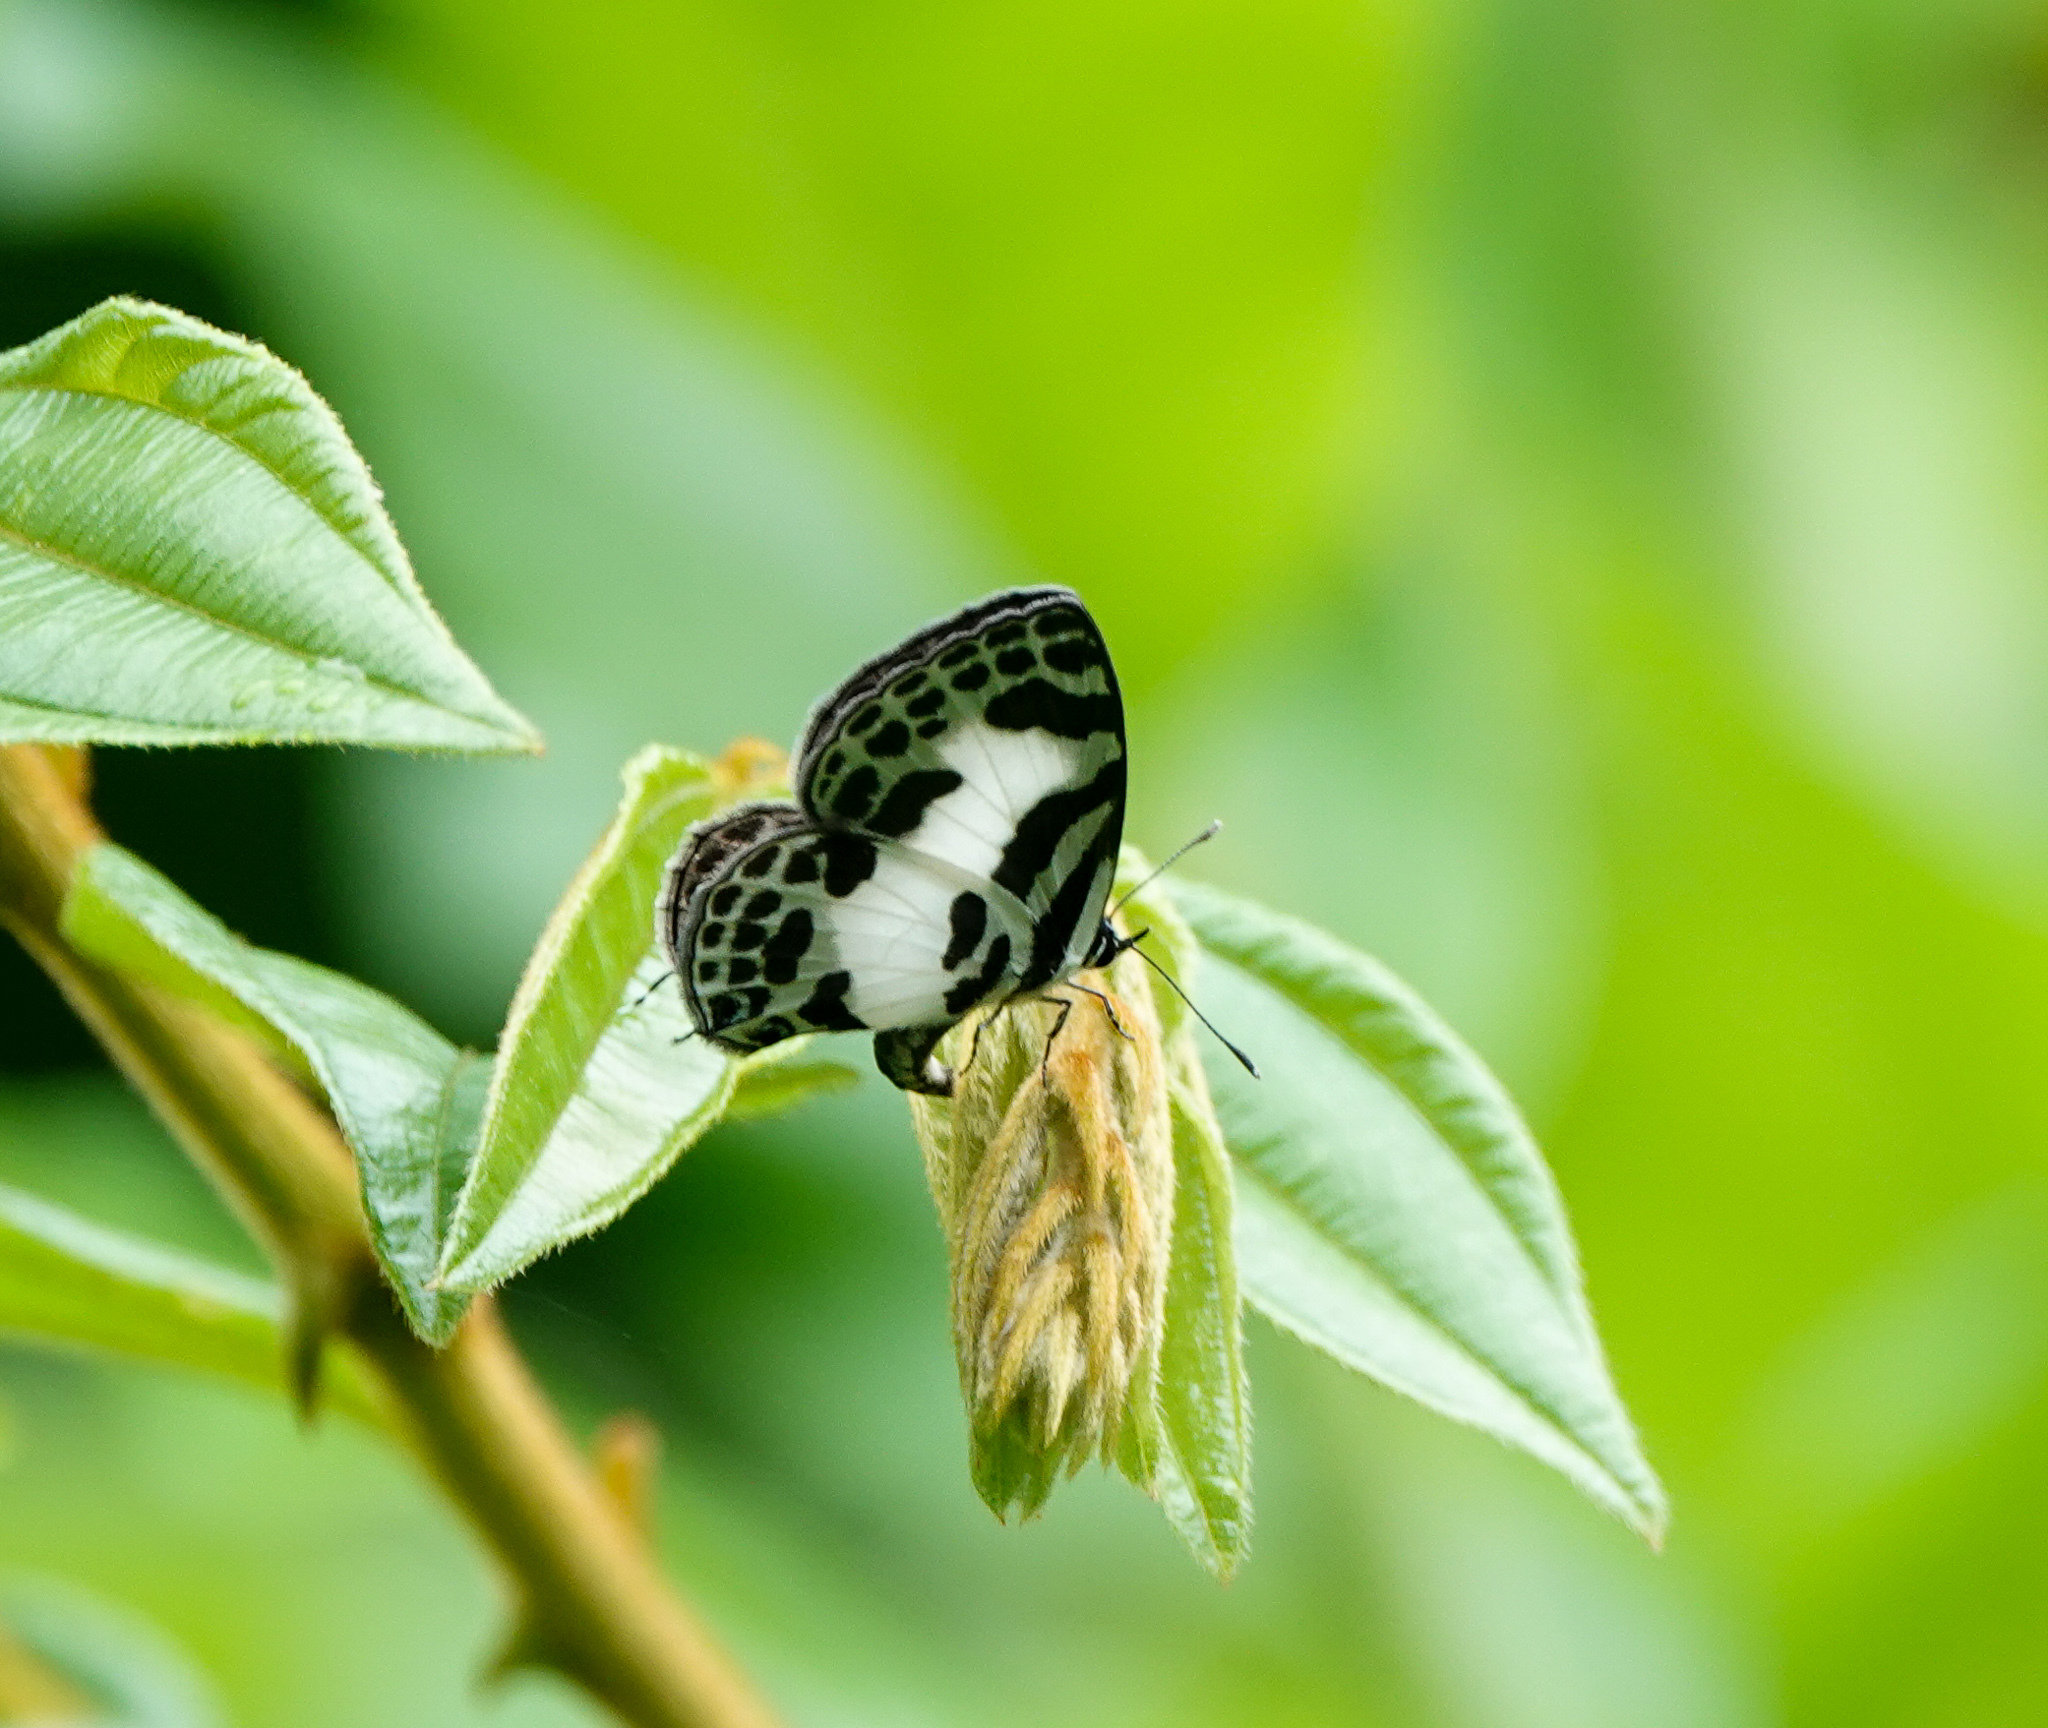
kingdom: Animalia
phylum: Arthropoda
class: Insecta
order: Lepidoptera
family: Lycaenidae
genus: Discolampa
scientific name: Discolampa ethion
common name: Banded blue pierrot
